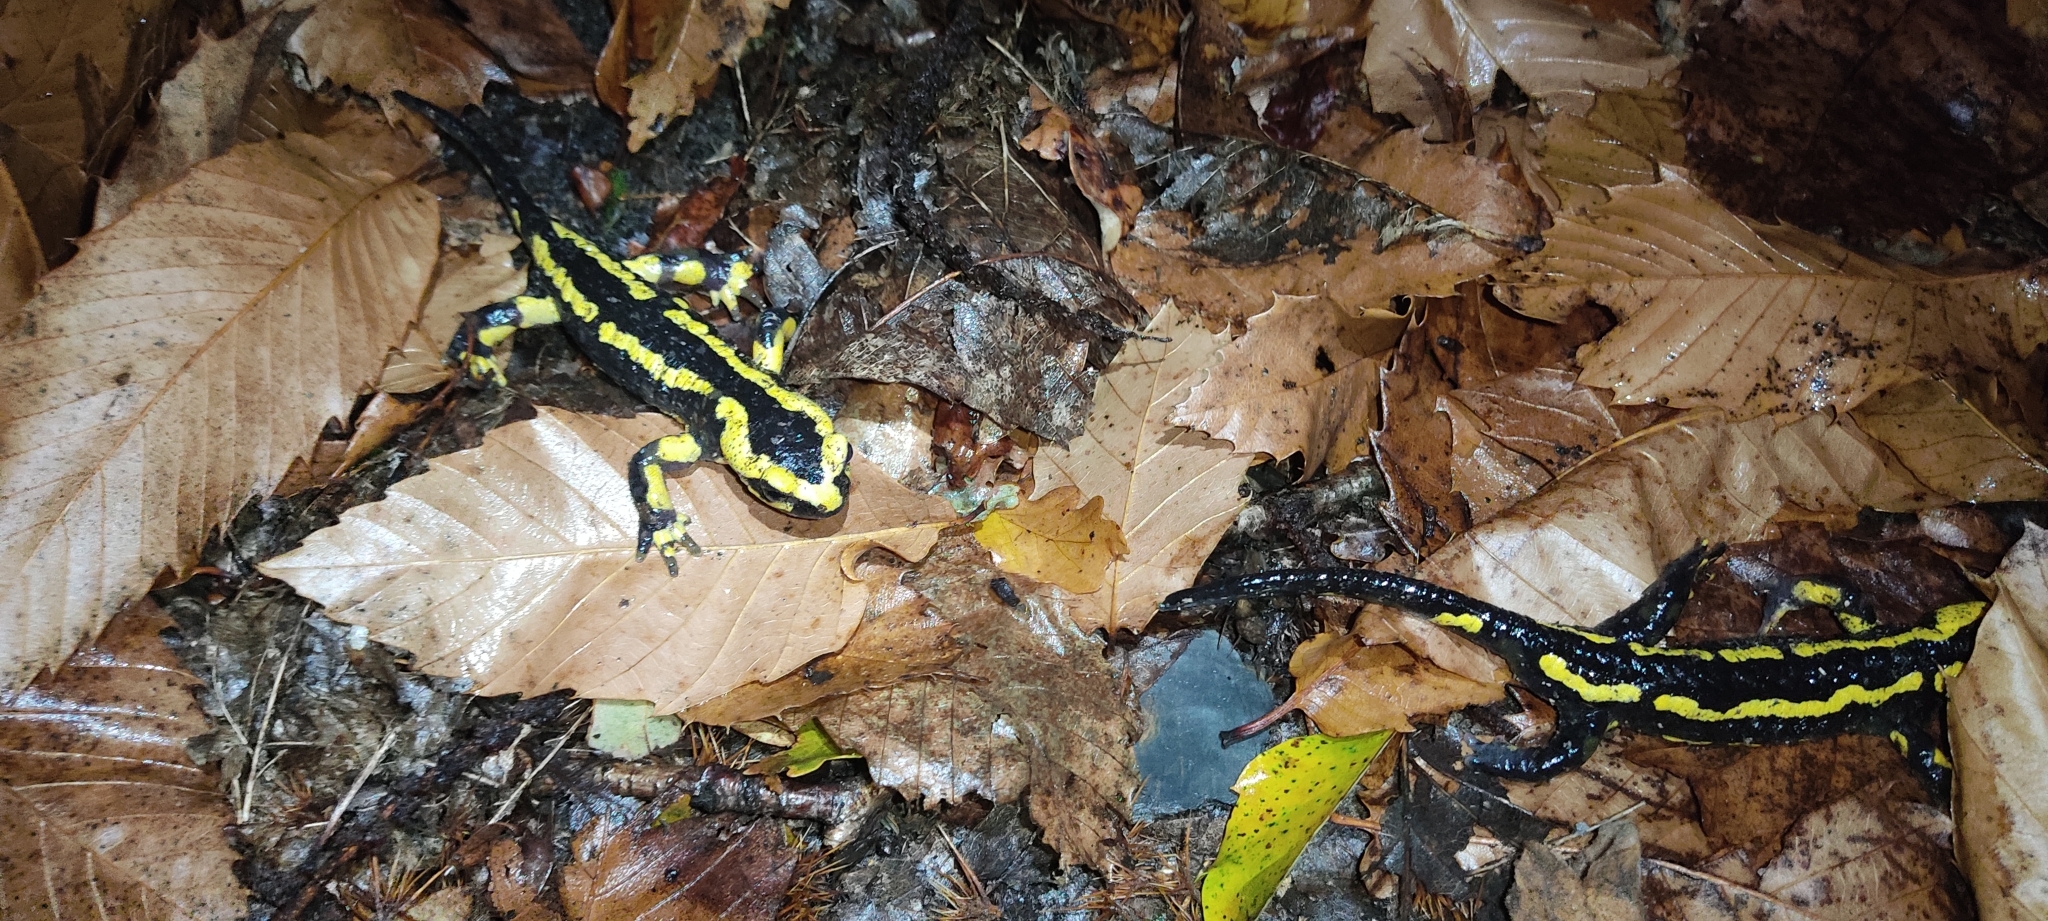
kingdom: Animalia
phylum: Chordata
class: Amphibia
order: Caudata
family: Salamandridae
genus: Salamandra
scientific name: Salamandra salamandra
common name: Fire salamander
